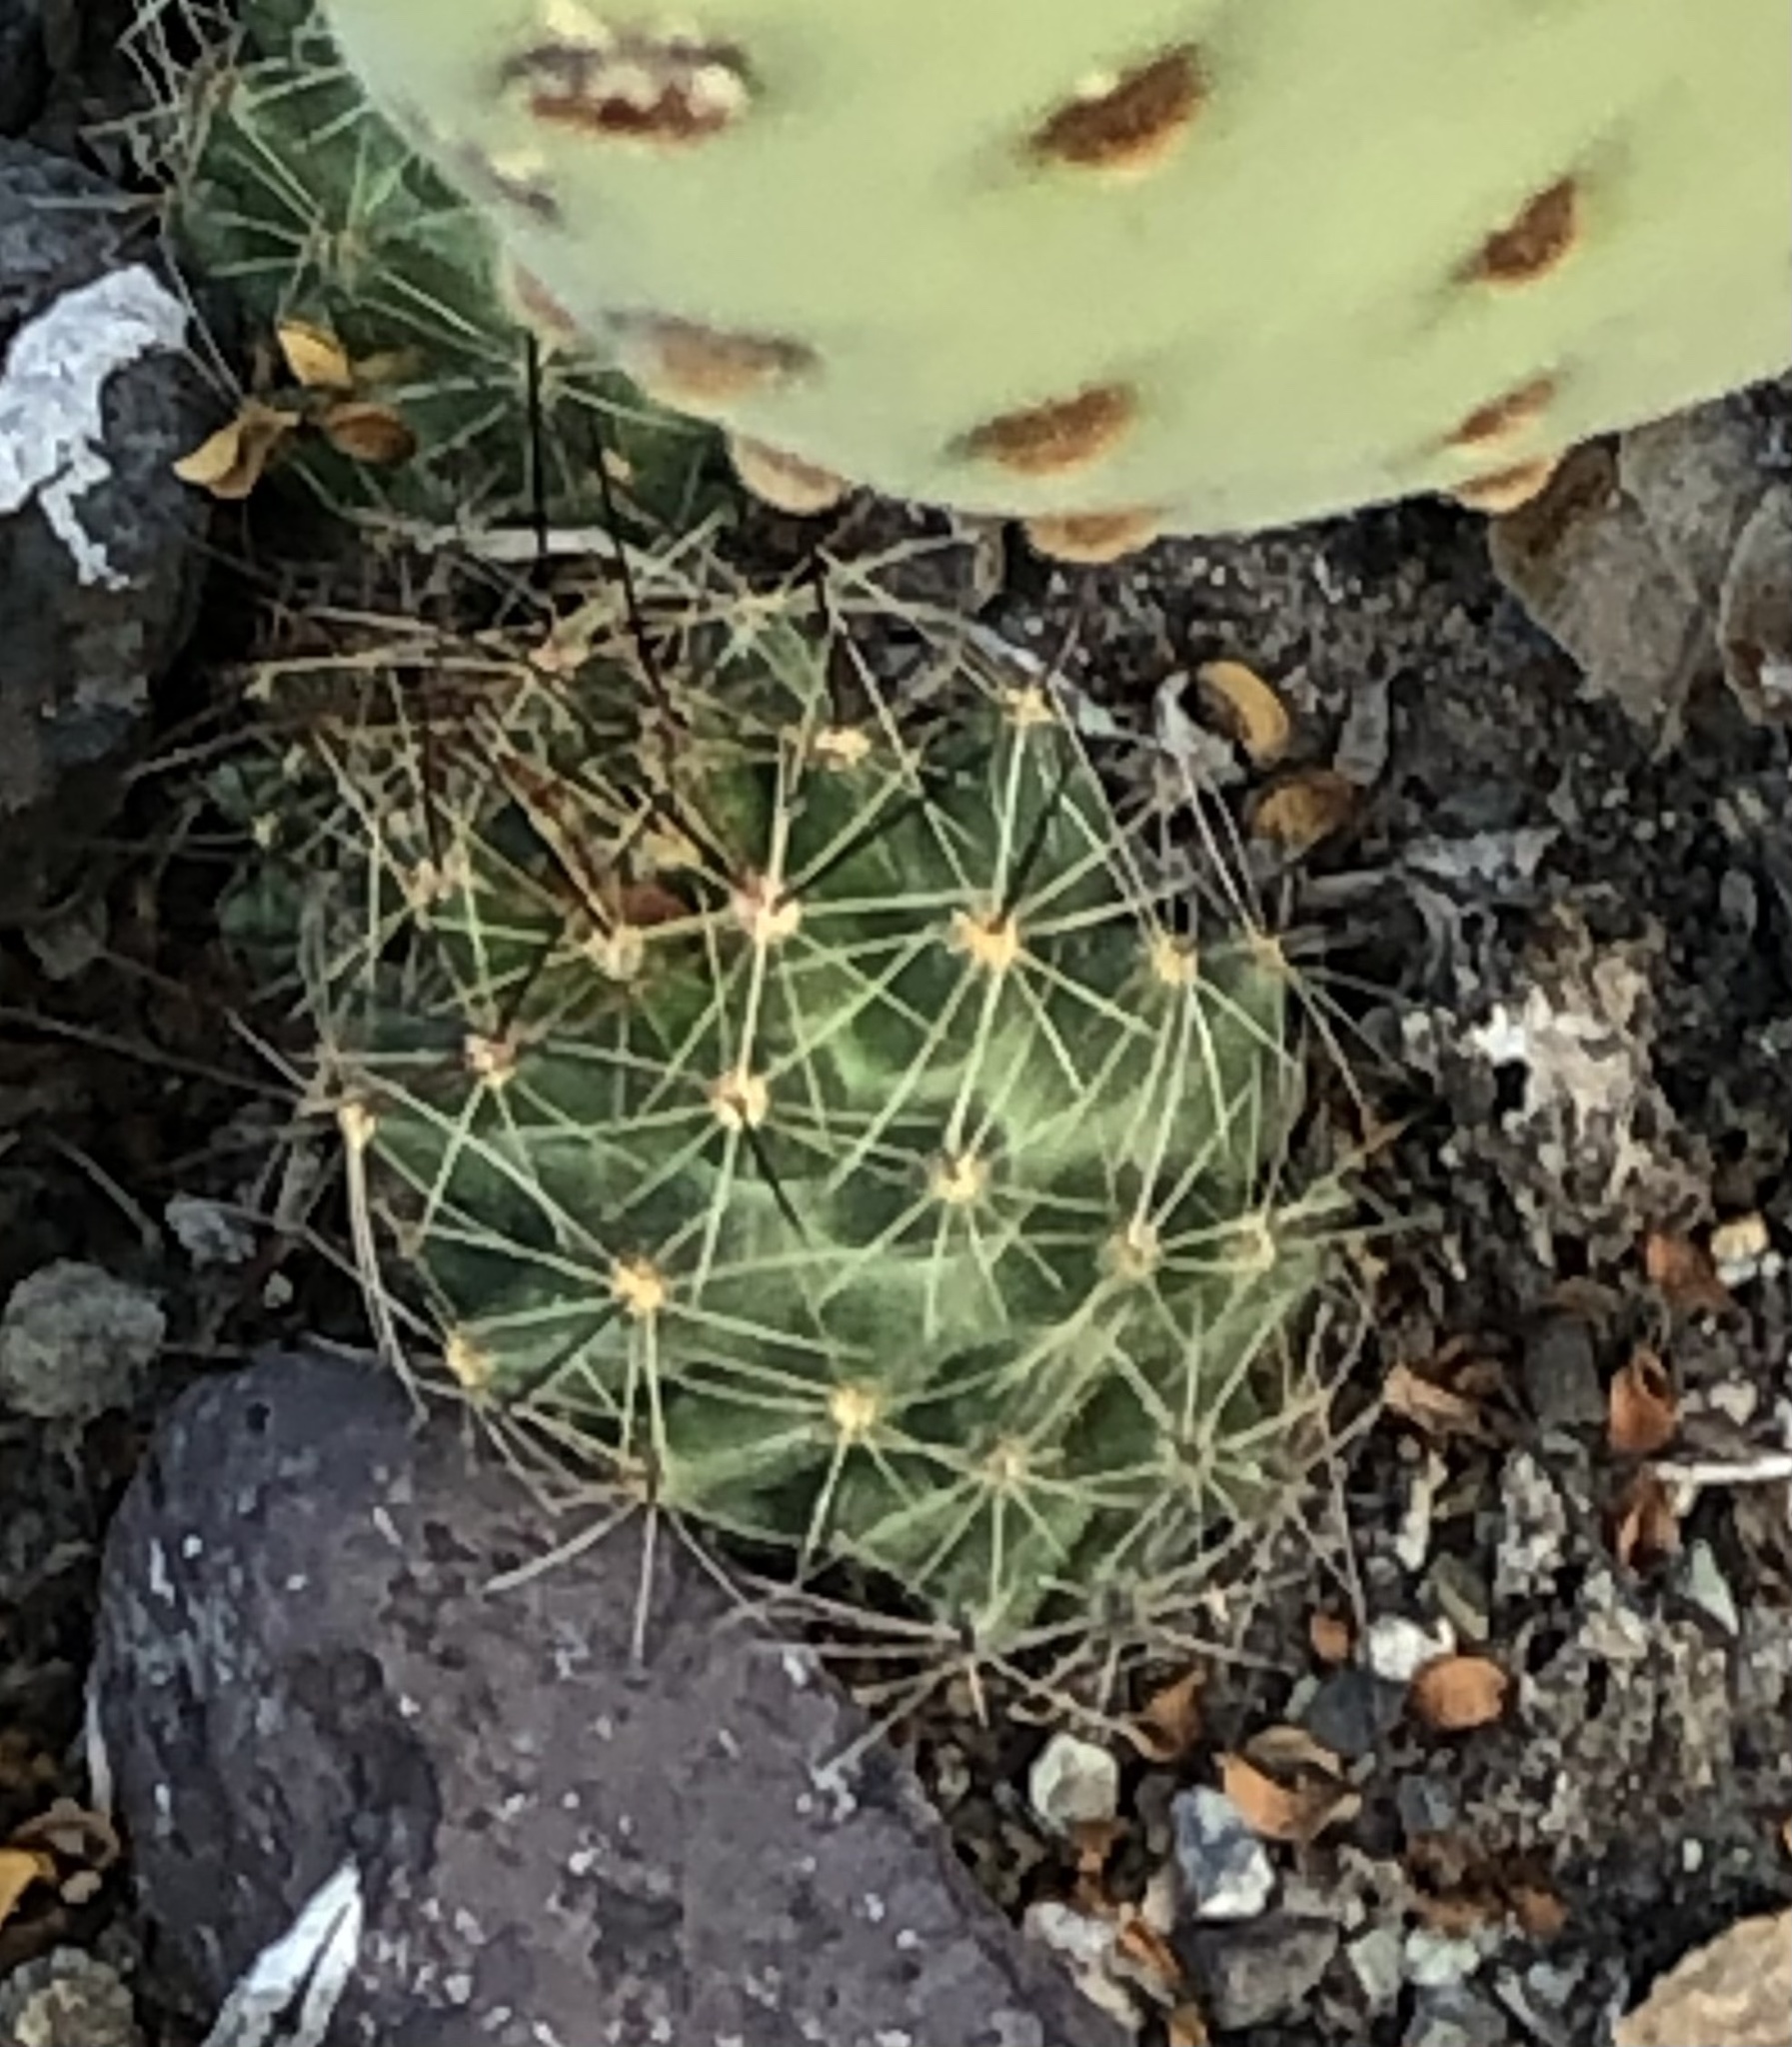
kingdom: Plantae
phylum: Tracheophyta
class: Magnoliopsida
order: Caryophyllales
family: Cactaceae
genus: Coryphantha
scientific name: Coryphantha macromeris
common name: Nipple beehive cactus
